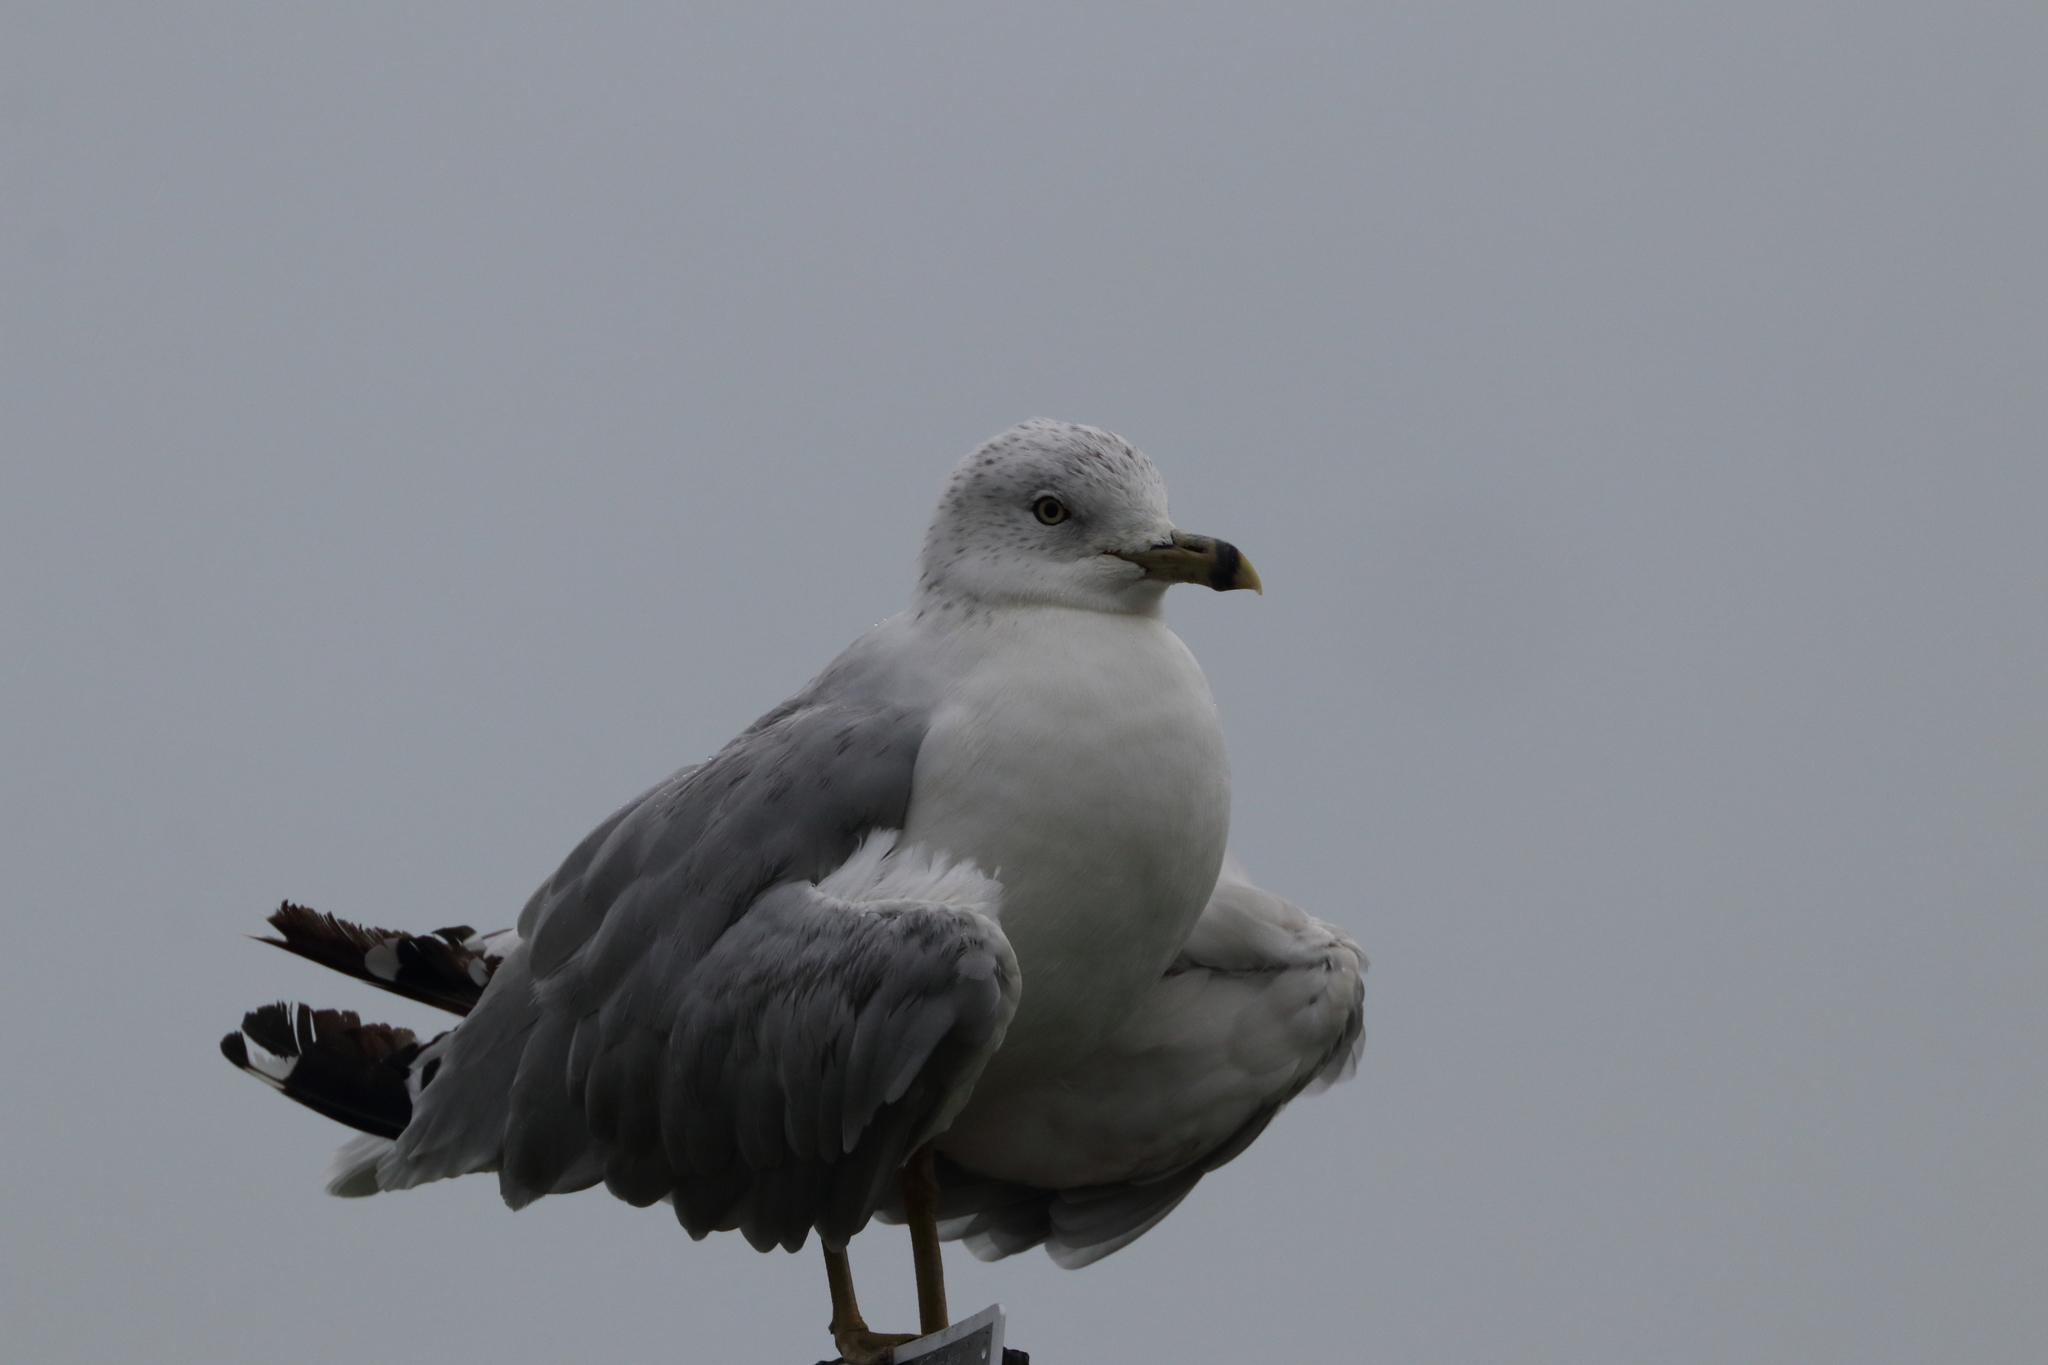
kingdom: Animalia
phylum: Chordata
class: Aves
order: Charadriiformes
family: Laridae
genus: Larus
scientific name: Larus delawarensis
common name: Ring-billed gull
